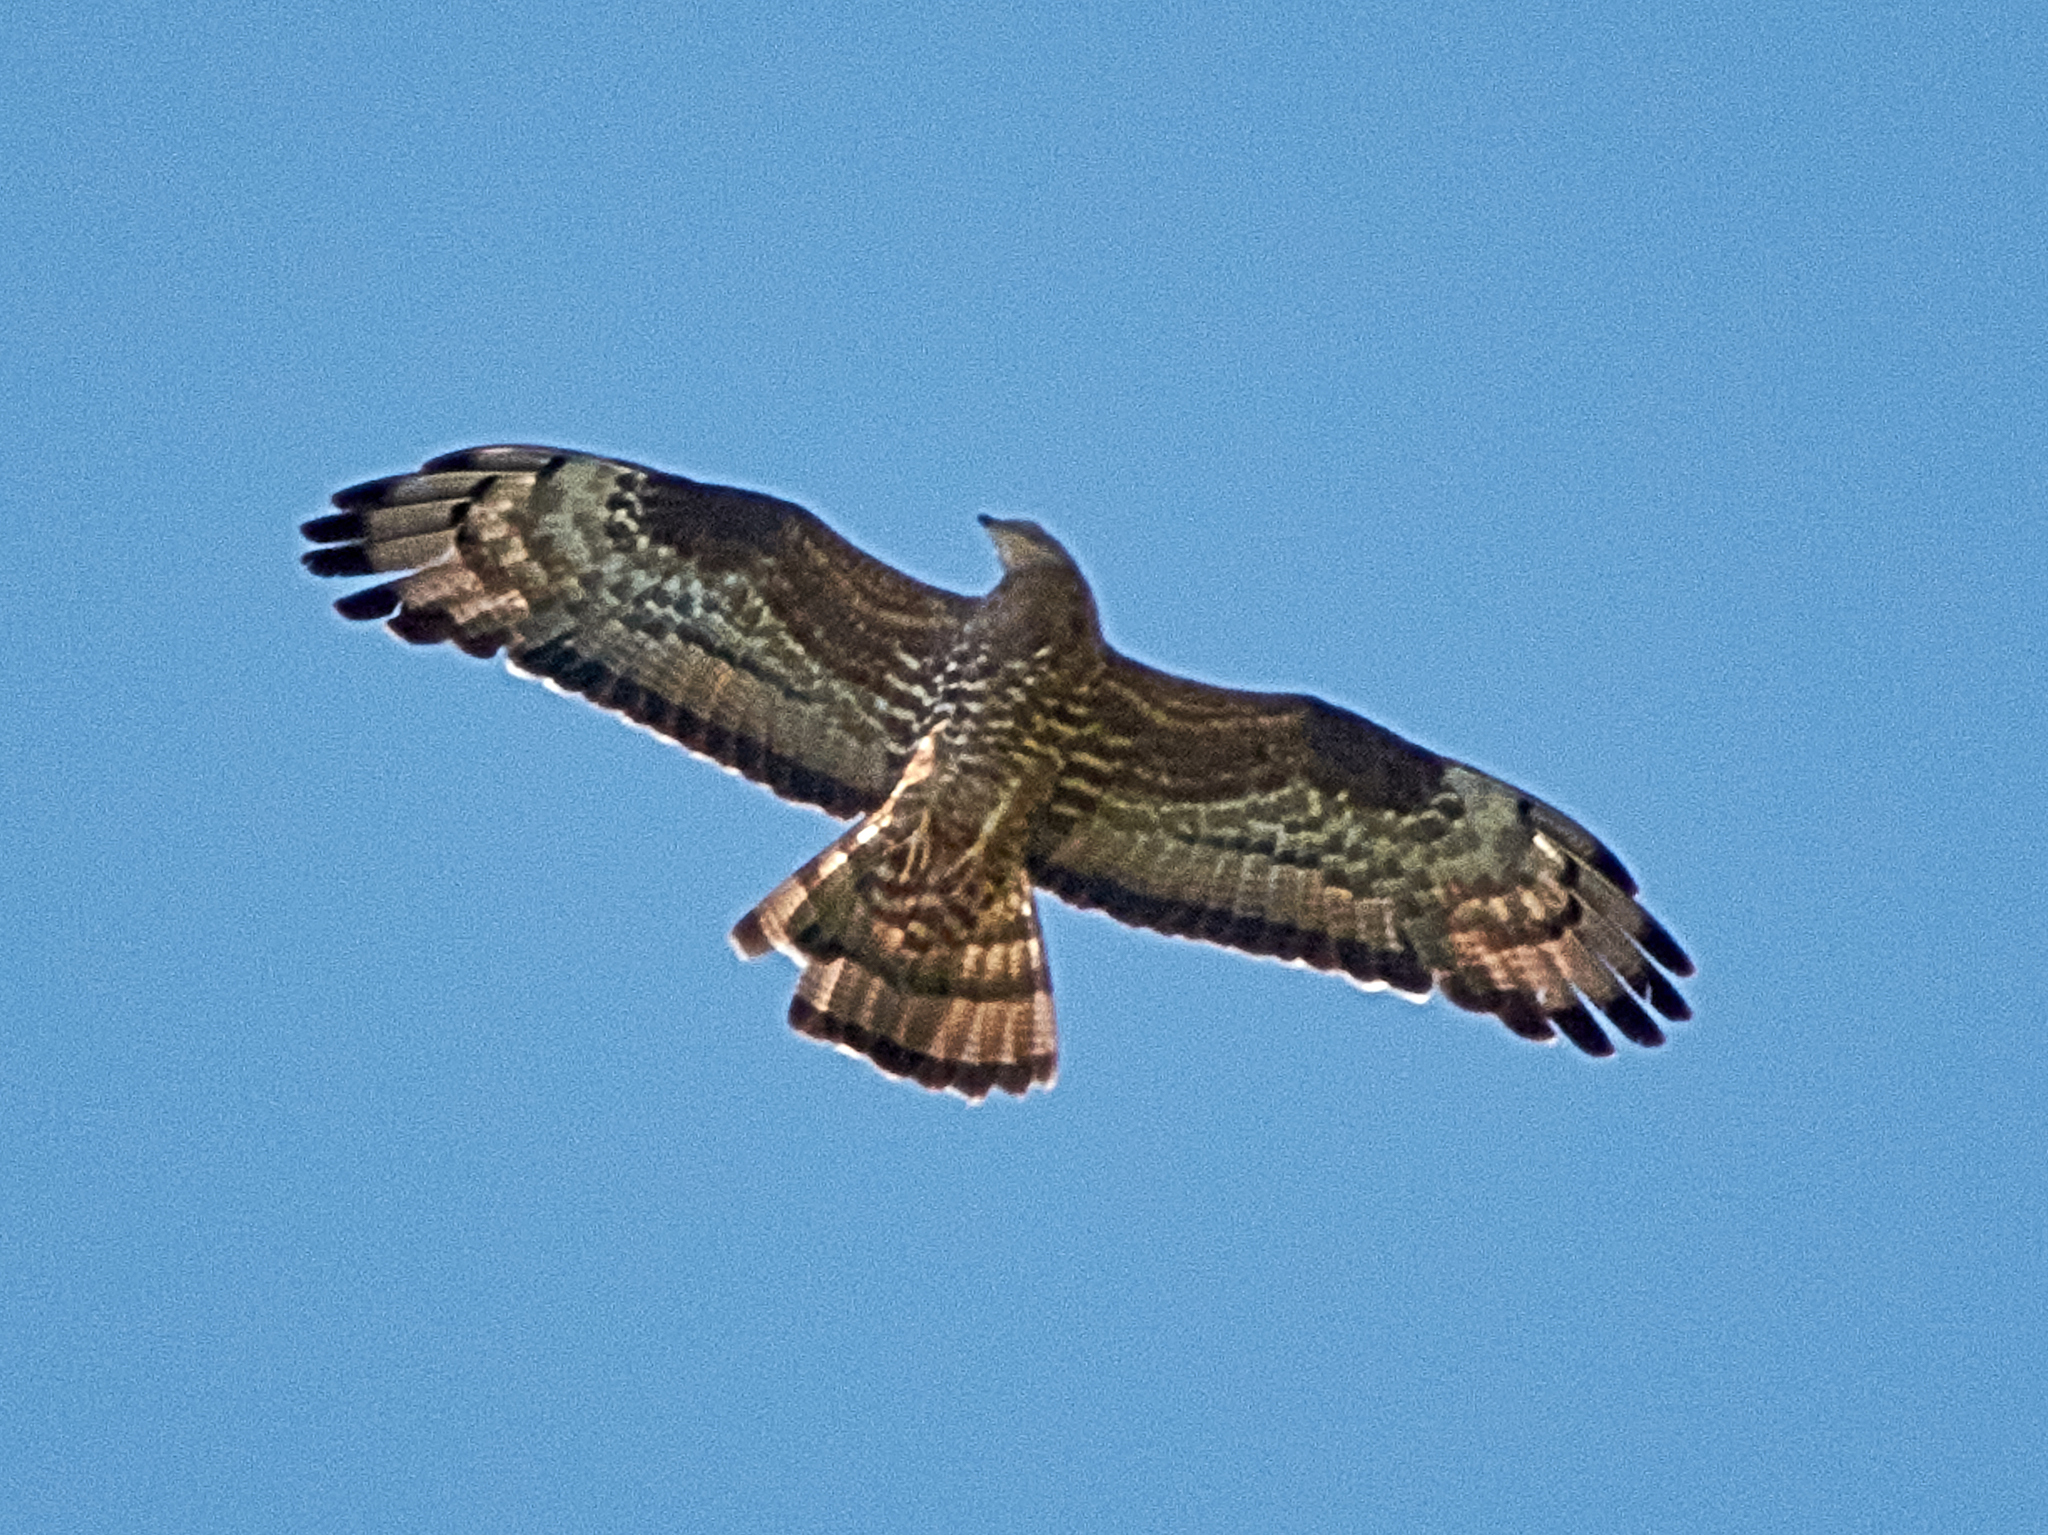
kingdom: Animalia
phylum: Chordata
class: Aves
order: Accipitriformes
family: Accipitridae
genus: Pernis
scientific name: Pernis apivorus
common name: European honey buzzard
